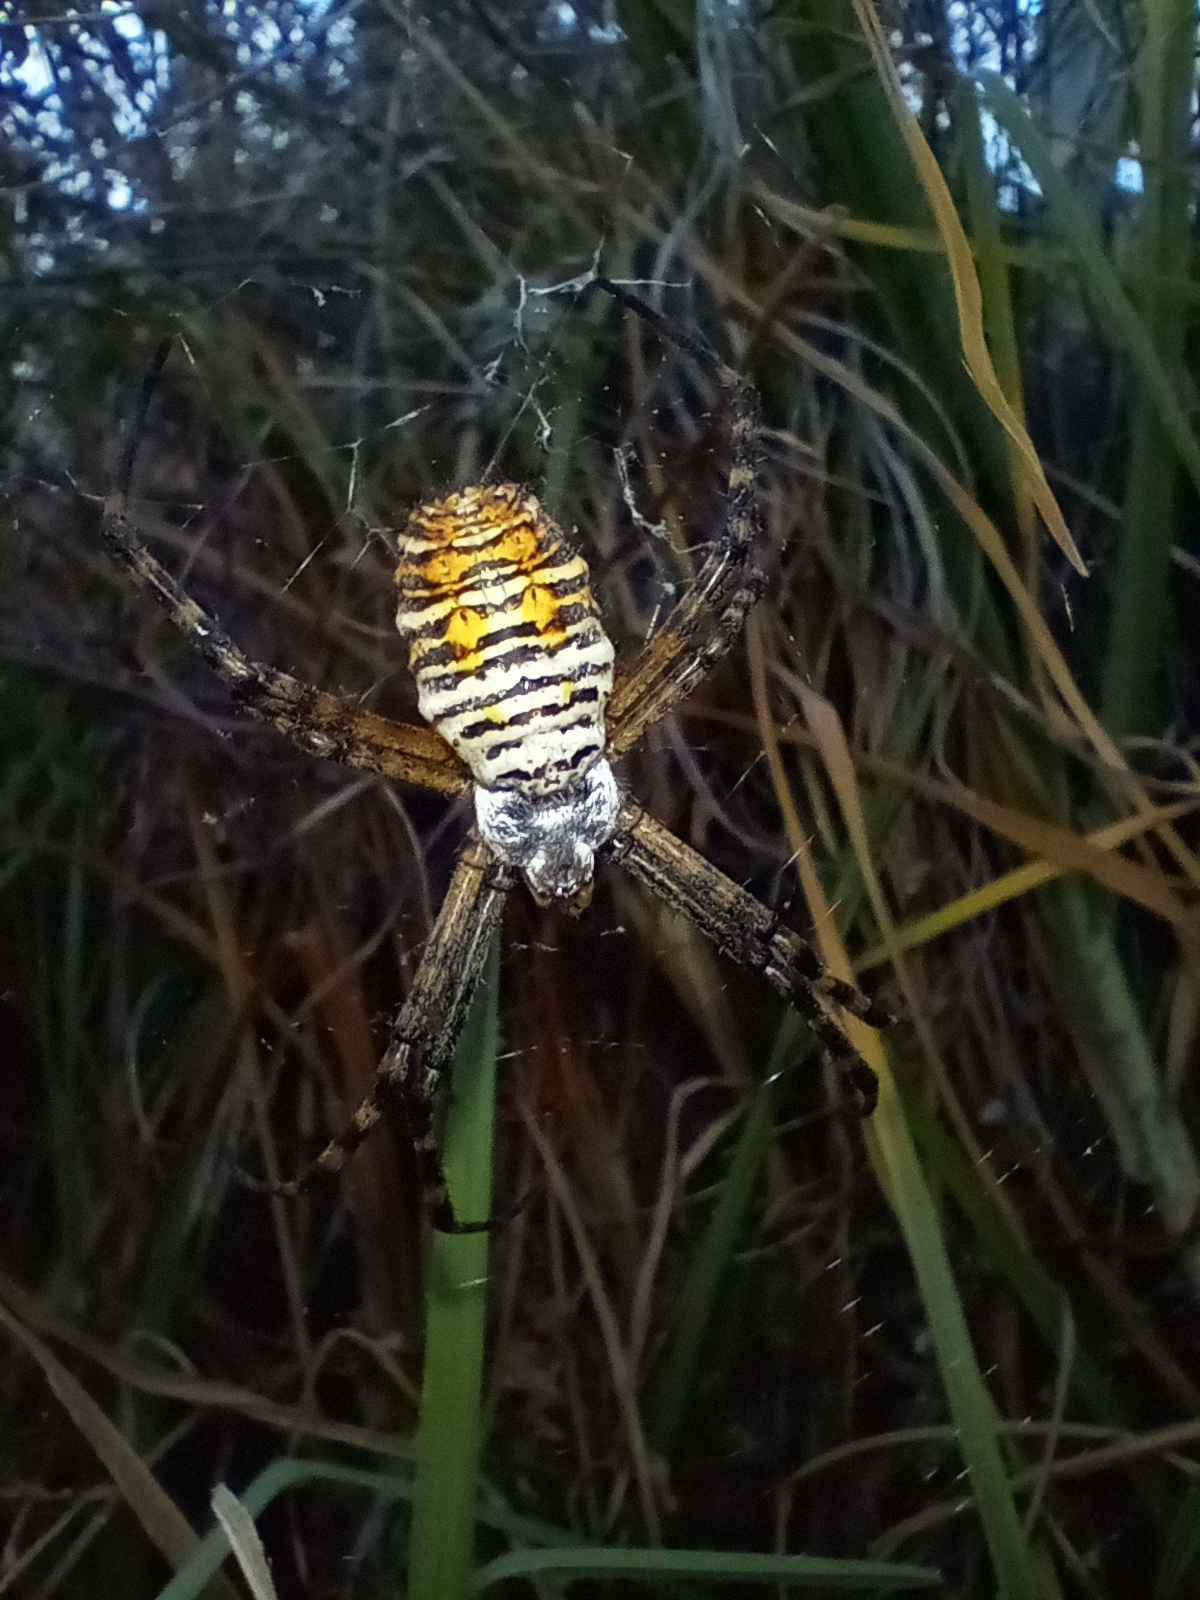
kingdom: Animalia
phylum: Arthropoda
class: Arachnida
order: Araneae
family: Araneidae
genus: Argiope
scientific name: Argiope trifasciata
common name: Banded garden spider
